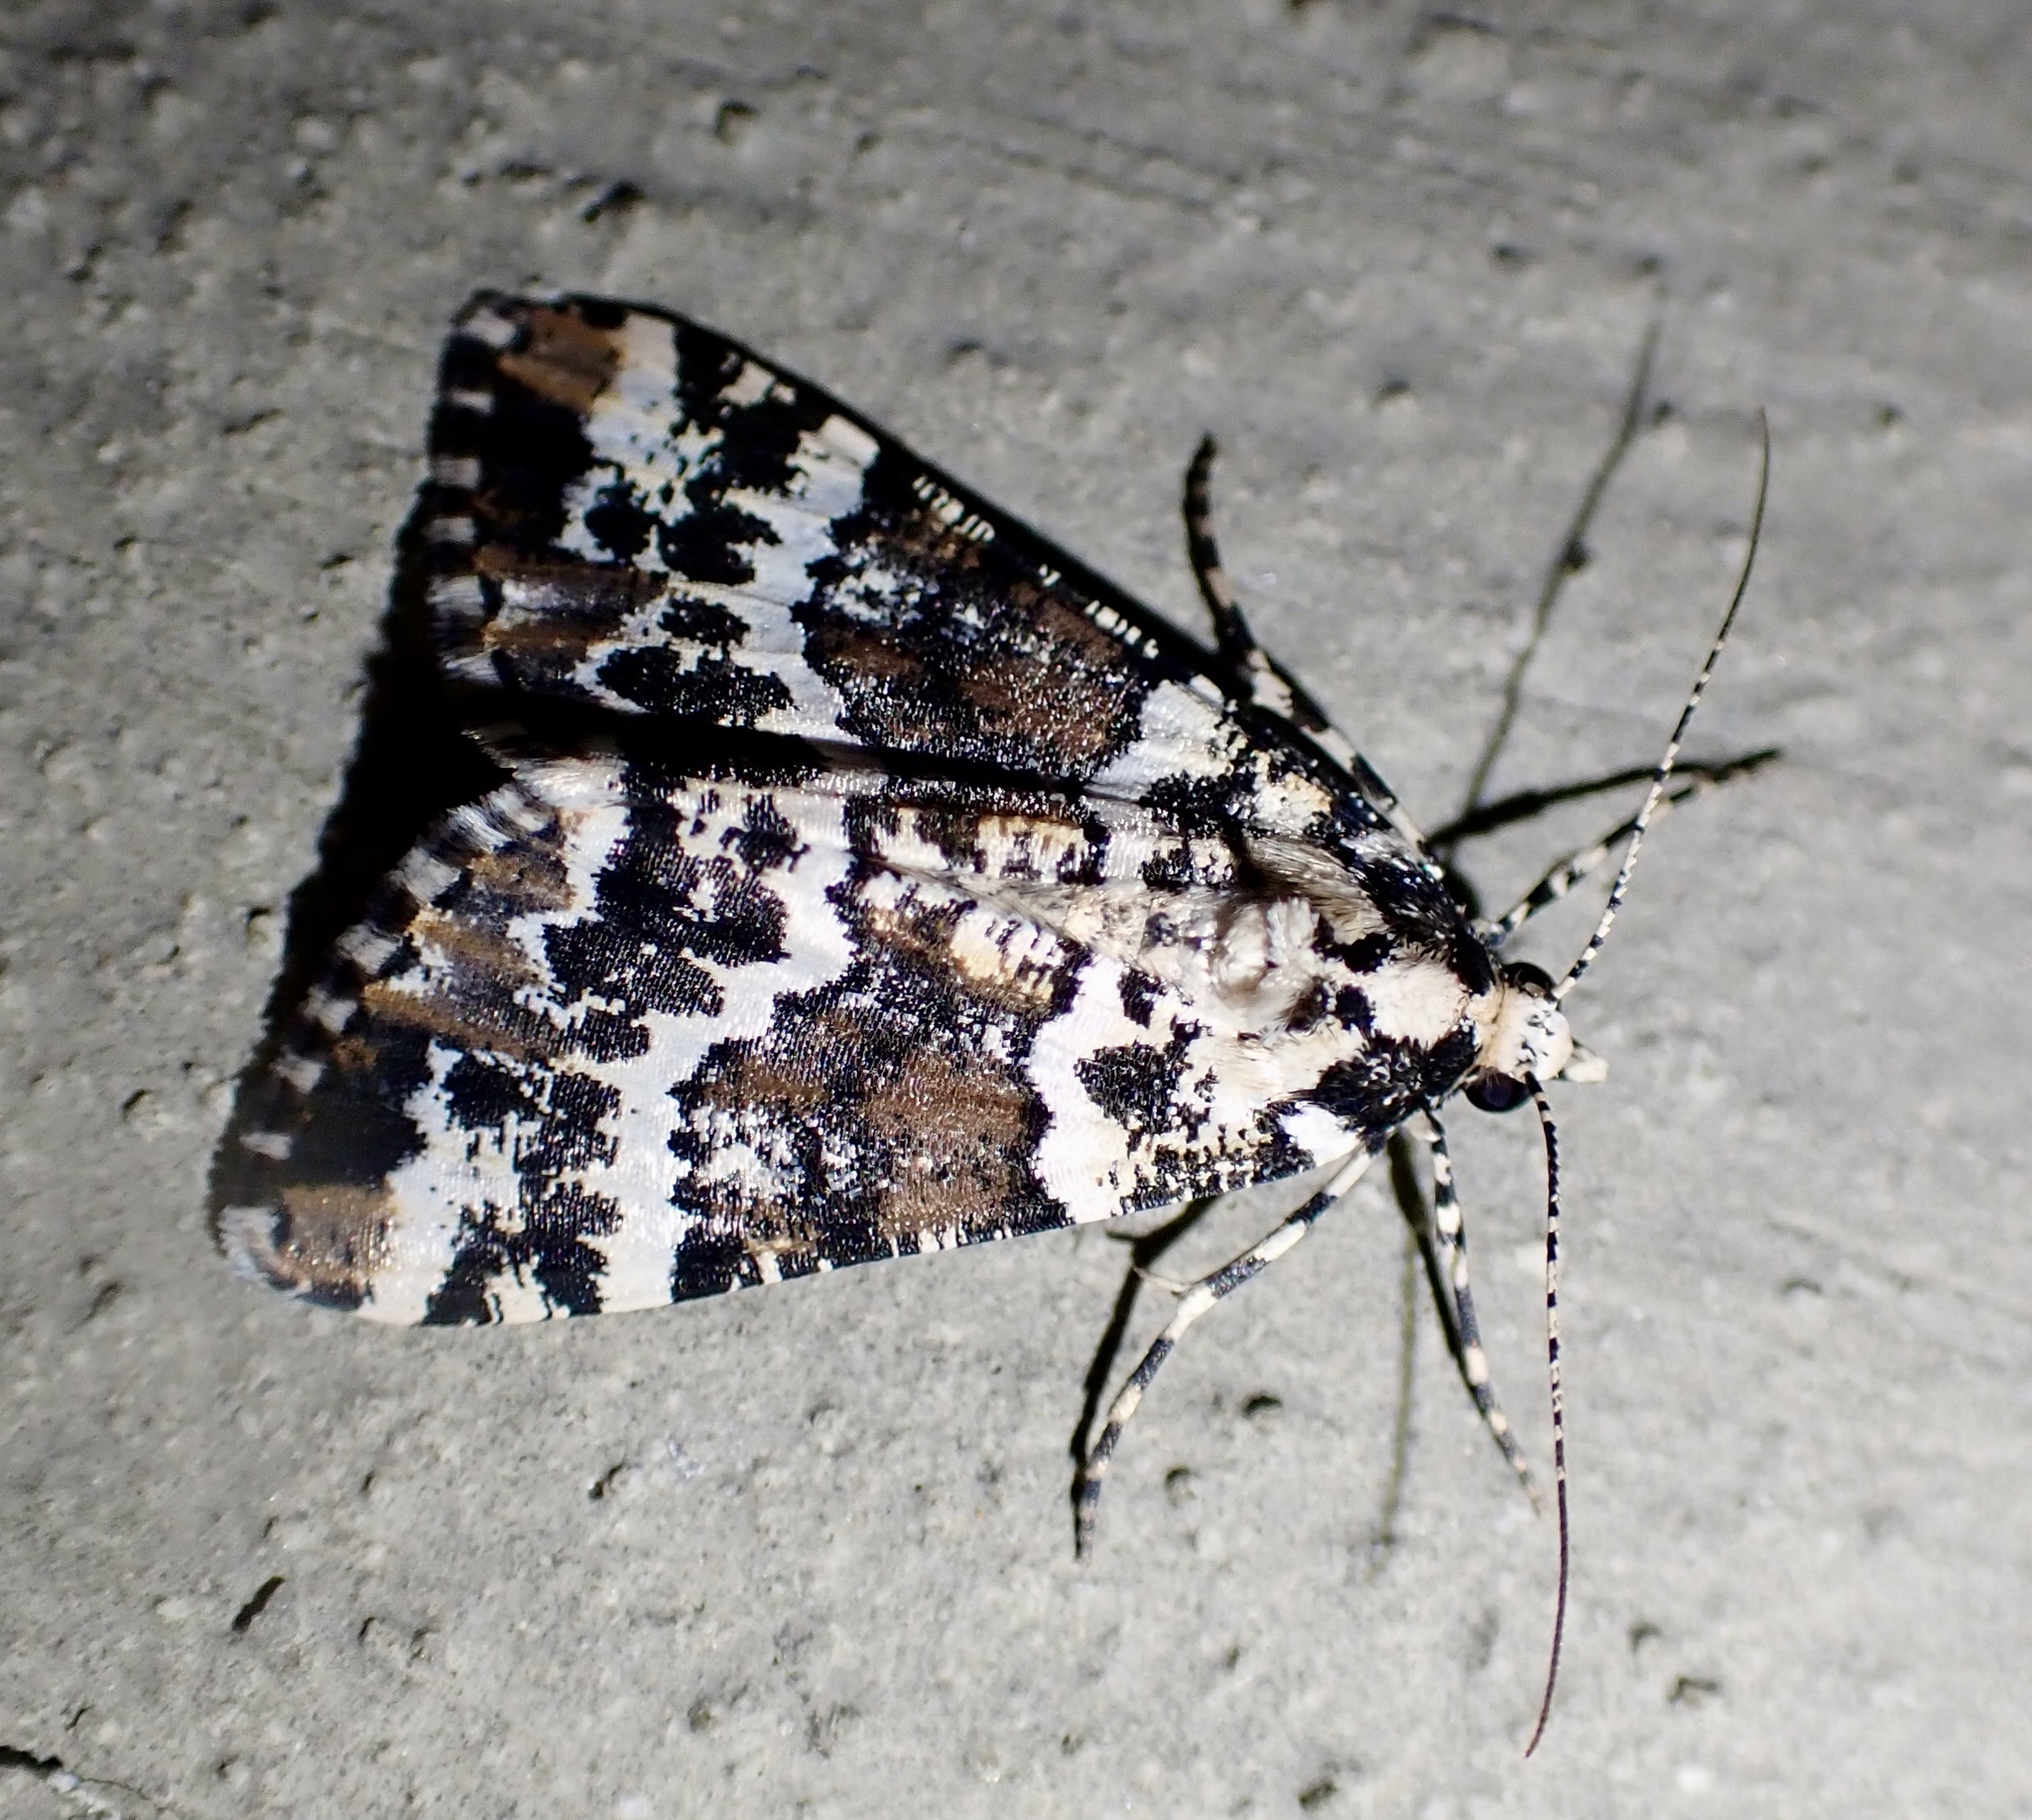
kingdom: Animalia
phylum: Arthropoda
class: Insecta
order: Lepidoptera
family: Geometridae
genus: Alcis
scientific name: Alcis nigriscripta
